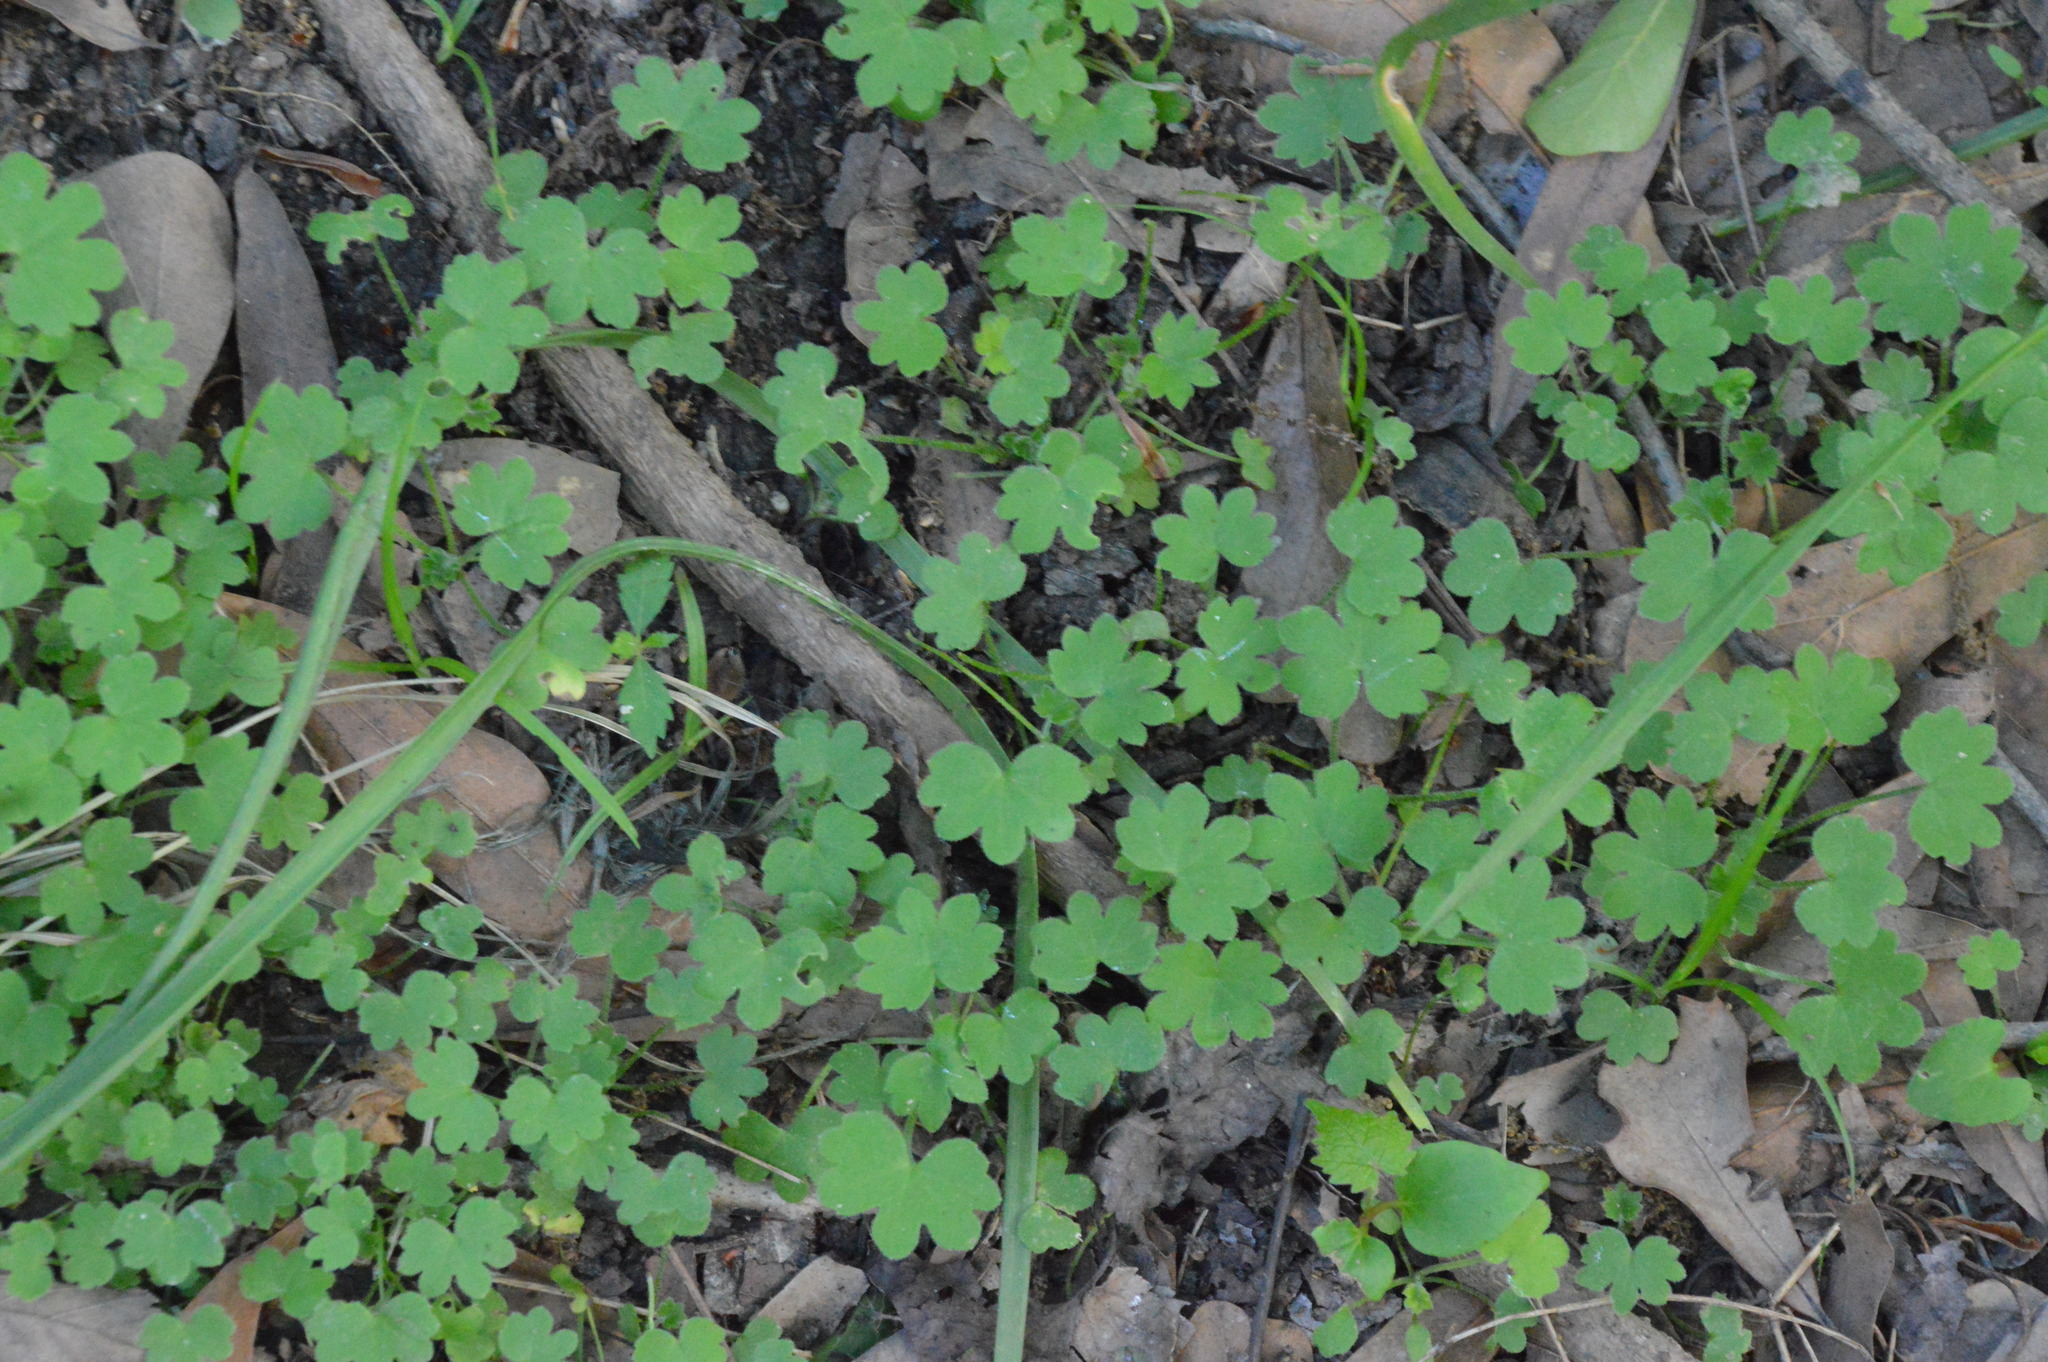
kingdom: Plantae
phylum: Tracheophyta
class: Magnoliopsida
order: Apiales
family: Apiaceae
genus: Bowlesia
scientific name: Bowlesia incana
